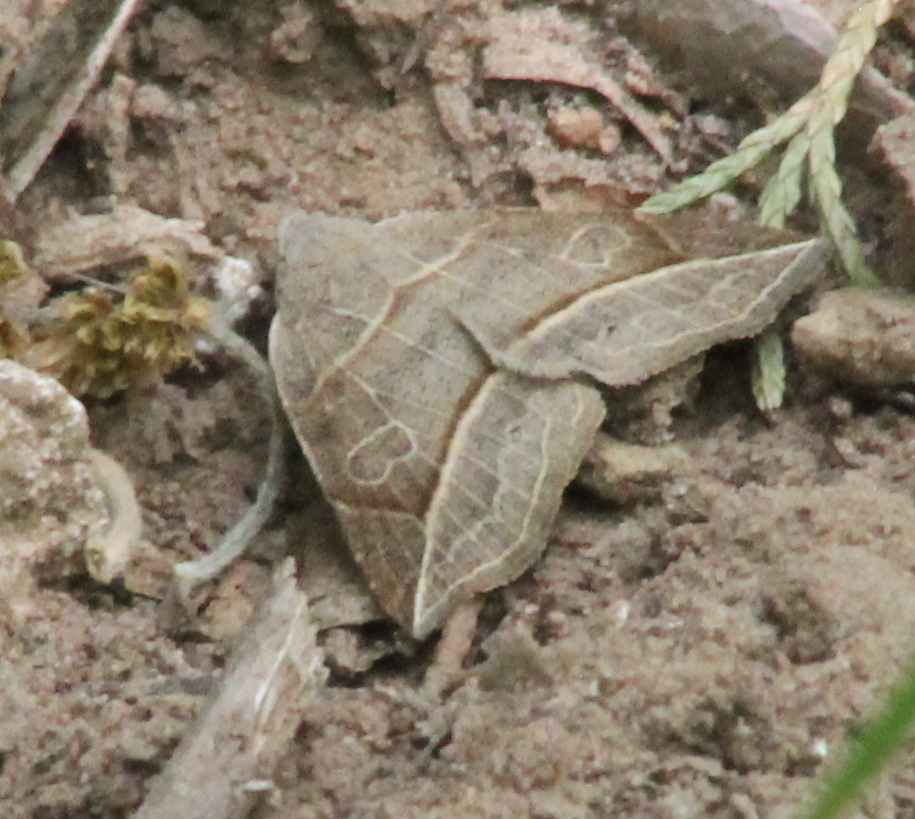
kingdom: Animalia
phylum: Arthropoda
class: Insecta
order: Lepidoptera
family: Erebidae
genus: Isogona
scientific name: Isogona tenuis
